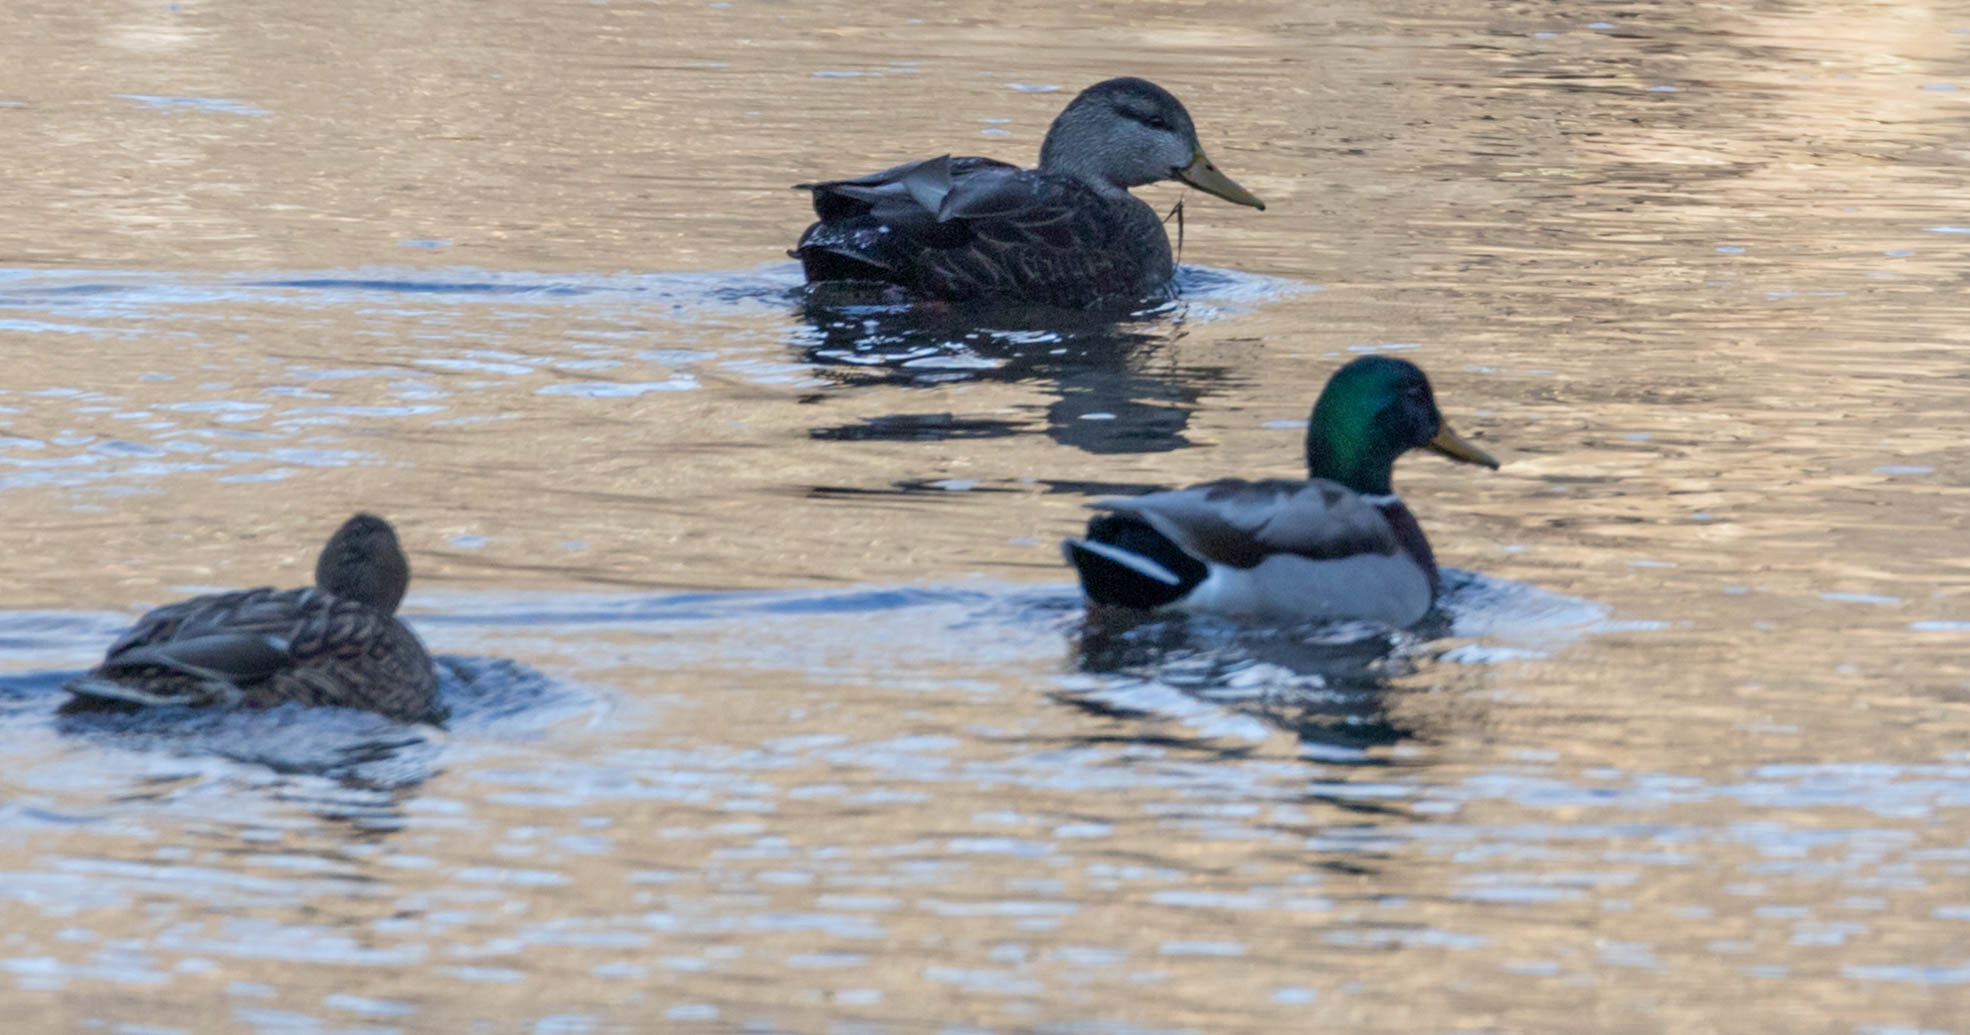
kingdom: Animalia
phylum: Chordata
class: Aves
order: Anseriformes
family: Anatidae
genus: Anas
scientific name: Anas rubripes
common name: American black duck
